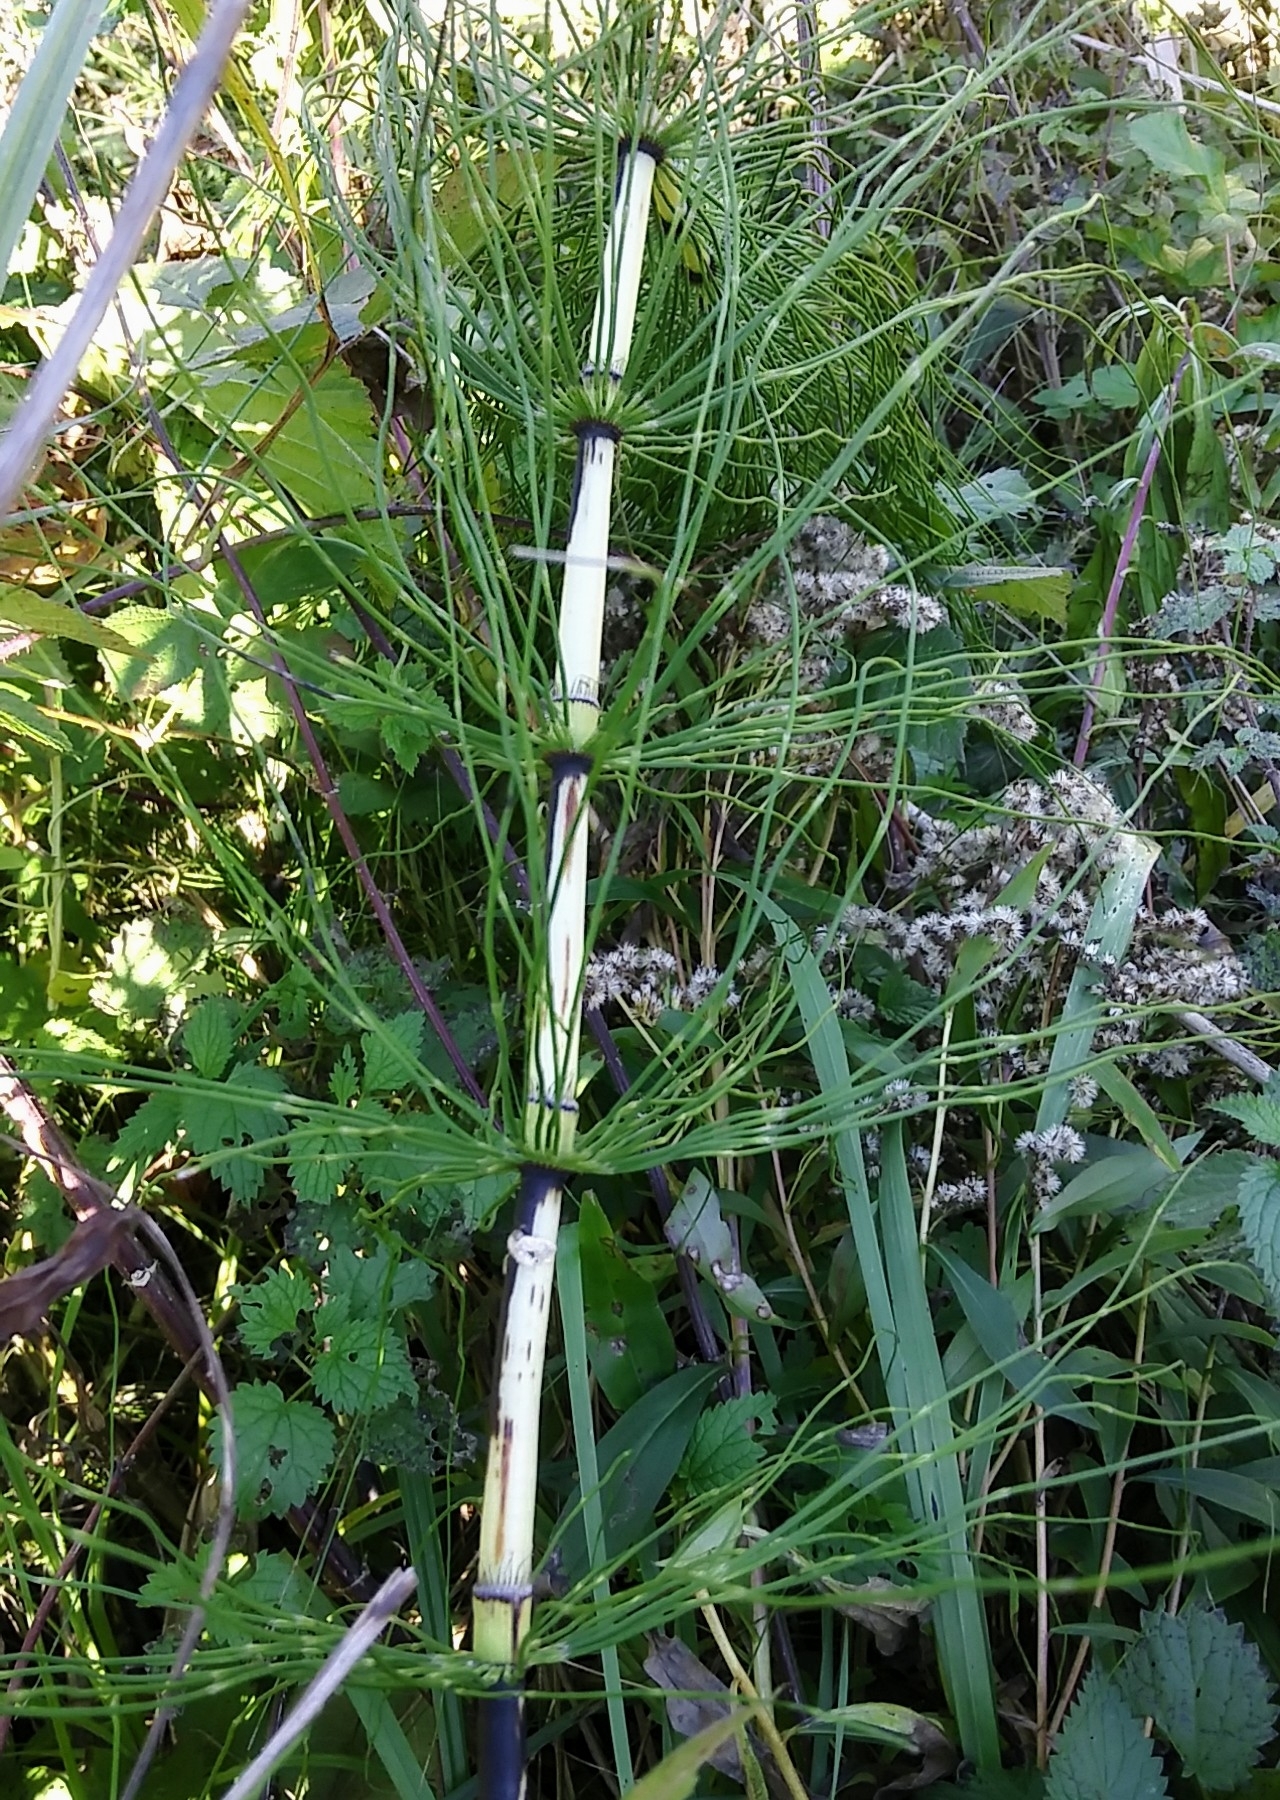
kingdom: Plantae
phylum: Tracheophyta
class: Polypodiopsida
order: Equisetales
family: Equisetaceae
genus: Equisetum
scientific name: Equisetum telmateia
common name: Great horsetail
